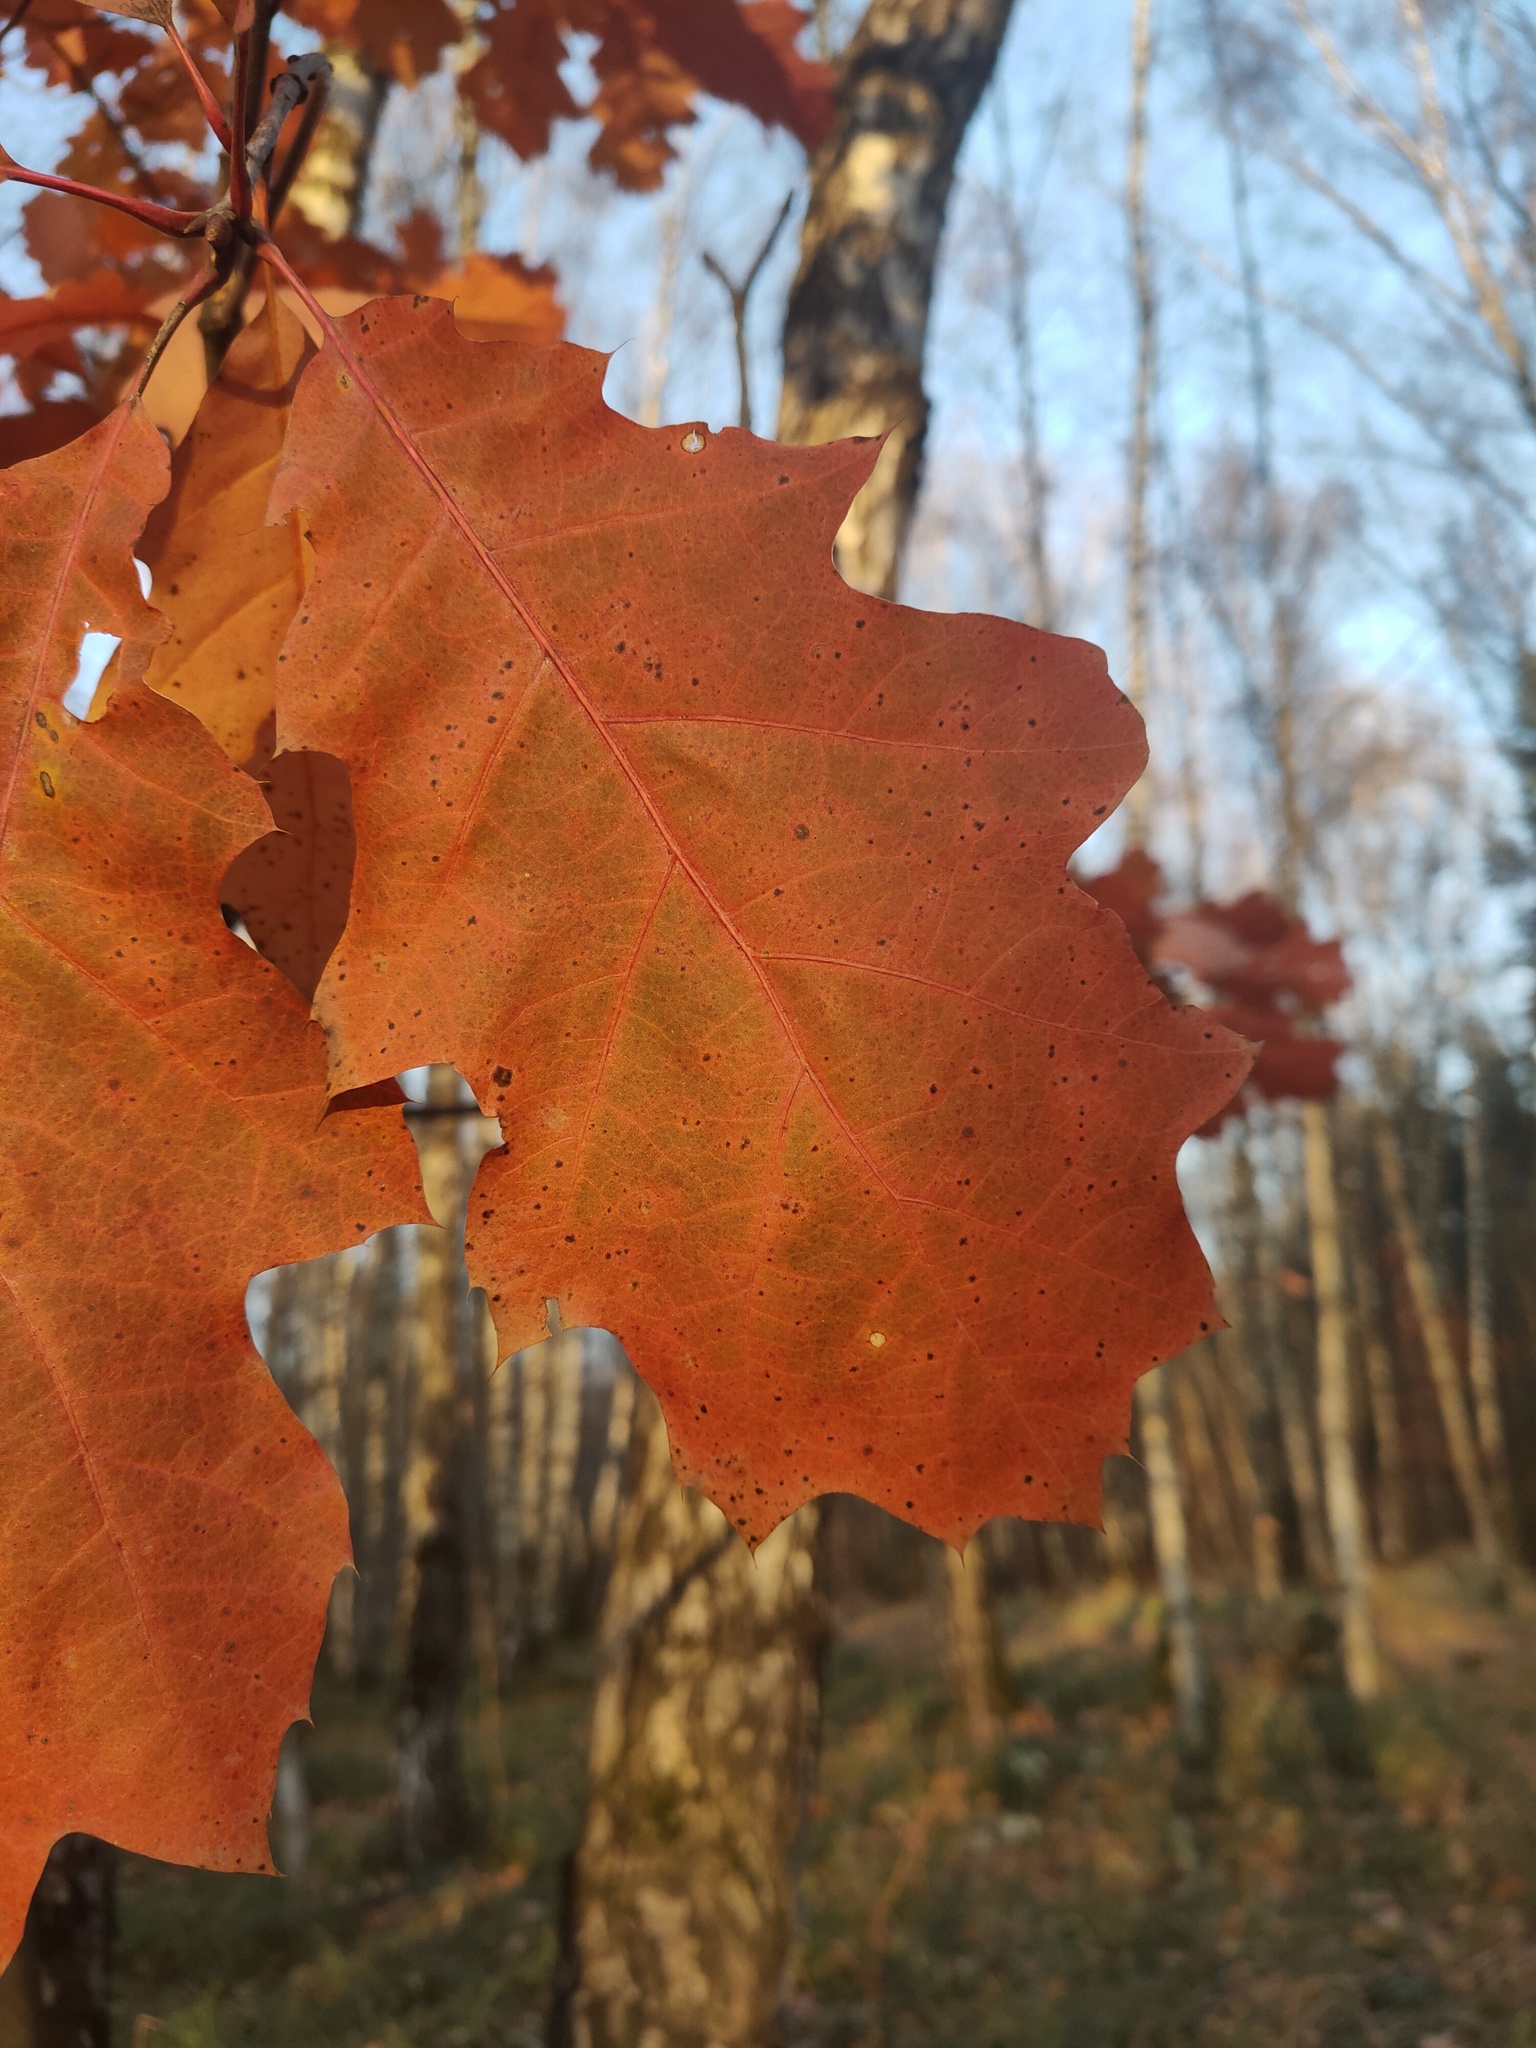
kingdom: Plantae
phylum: Tracheophyta
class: Magnoliopsida
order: Fagales
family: Fagaceae
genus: Quercus
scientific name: Quercus rubra
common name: Red oak
